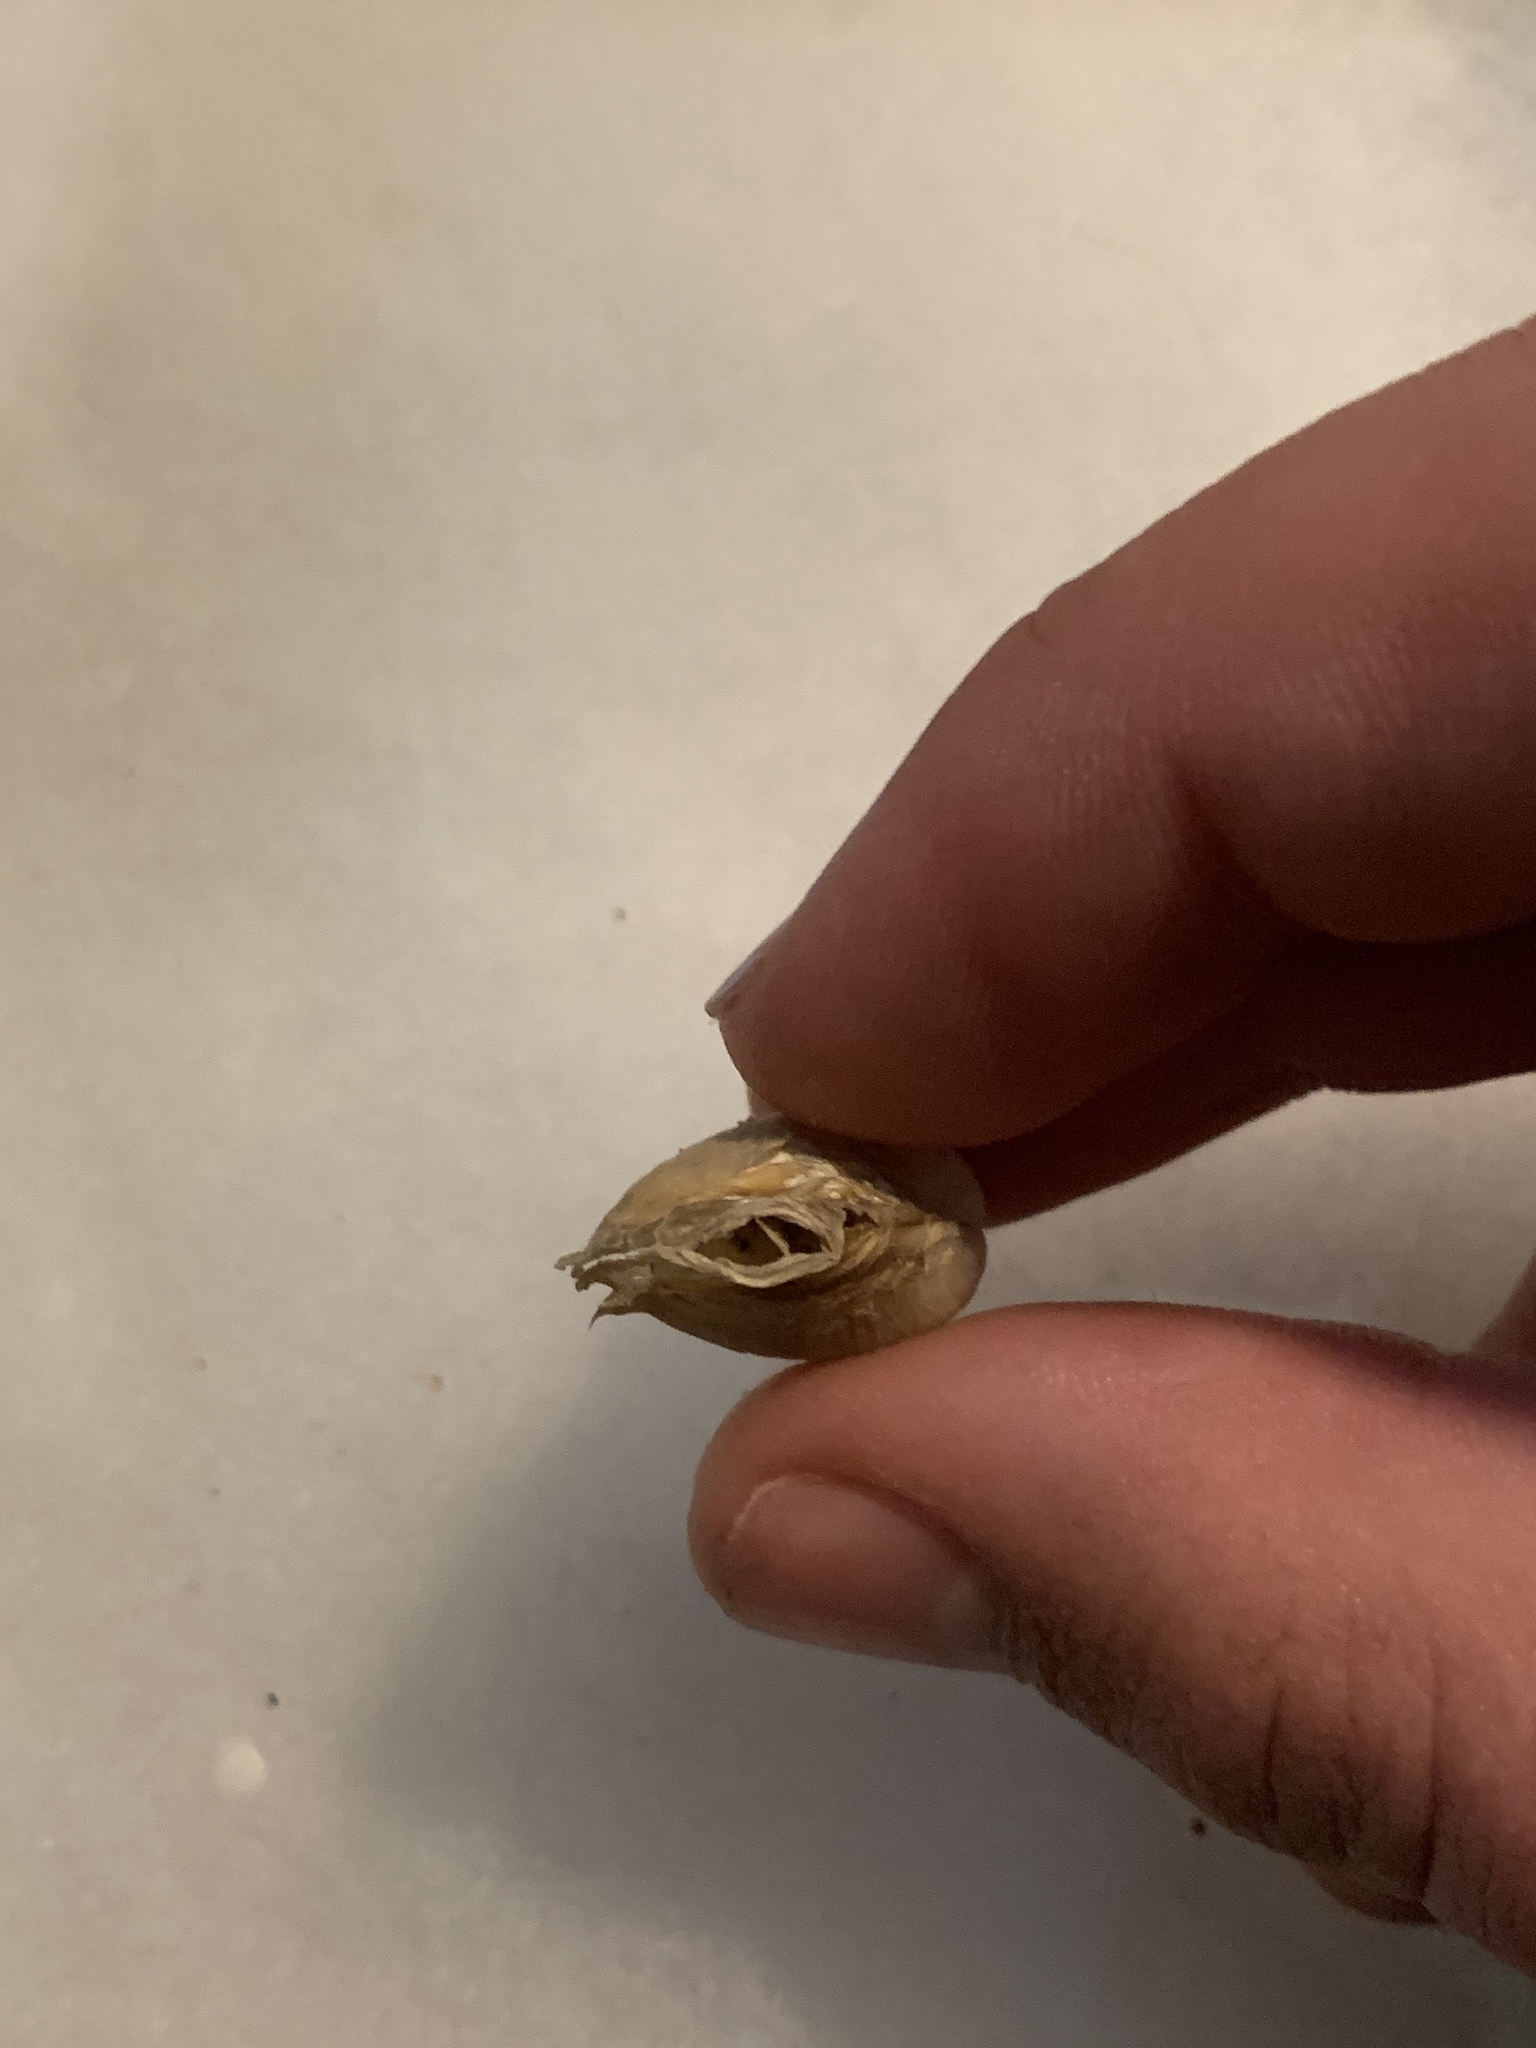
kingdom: Animalia
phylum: Mollusca
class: Bivalvia
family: Lyonsiidae
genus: Lyonsia
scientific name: Lyonsia californica
